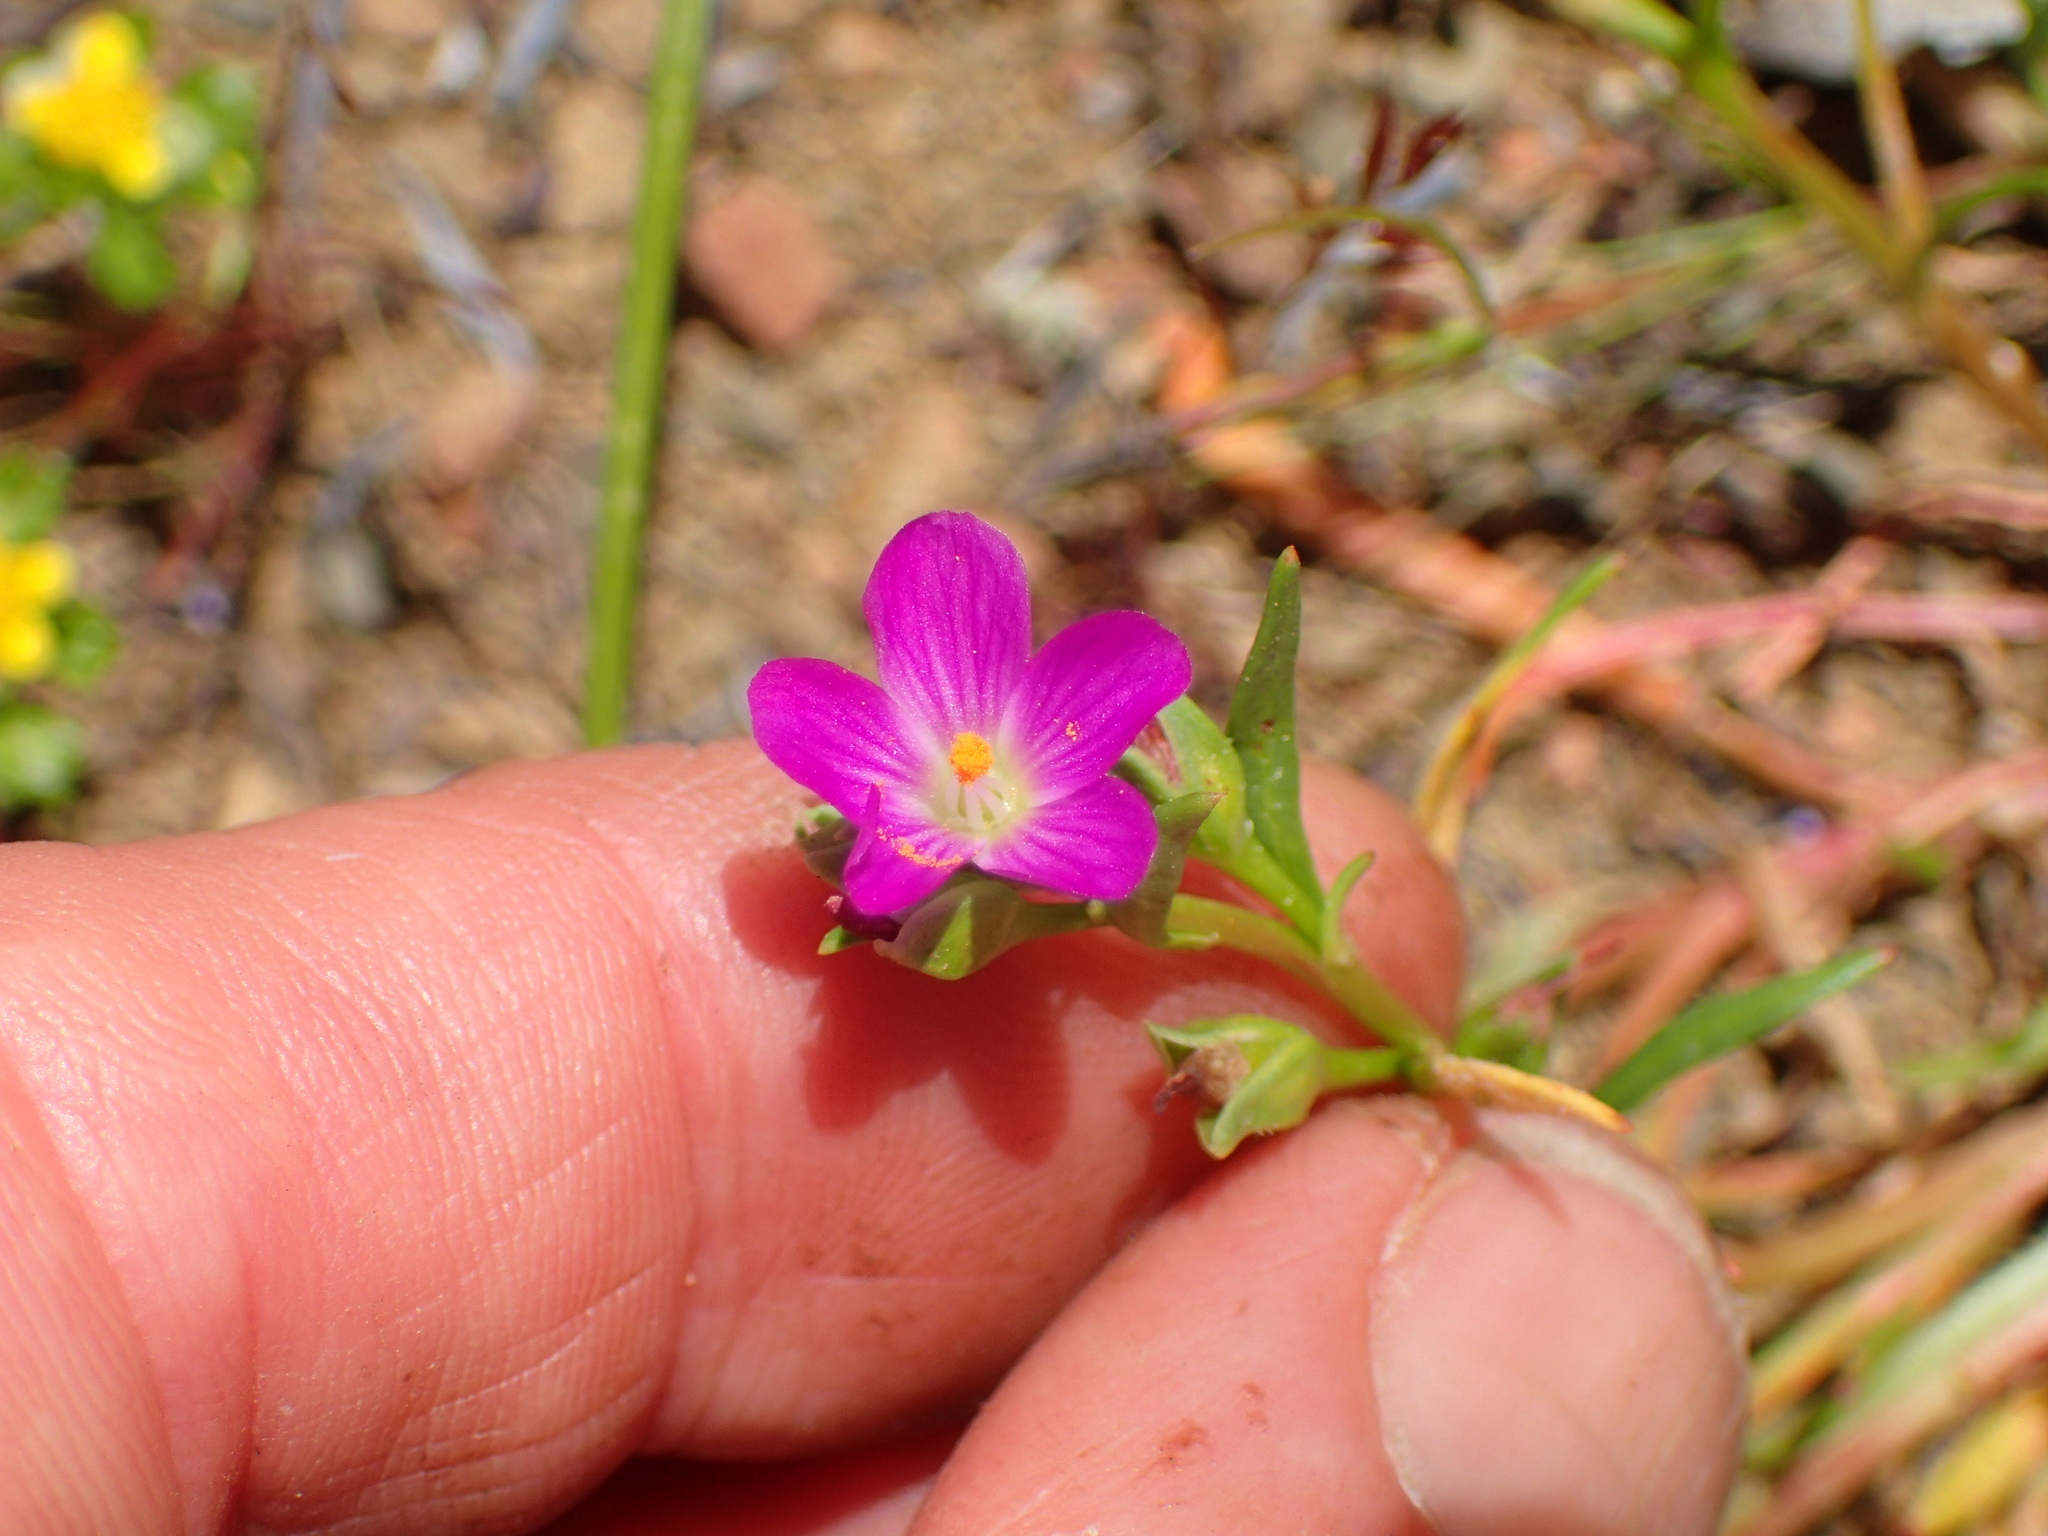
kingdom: Plantae
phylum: Tracheophyta
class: Magnoliopsida
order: Caryophyllales
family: Montiaceae
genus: Calandrinia
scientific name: Calandrinia menziesii
